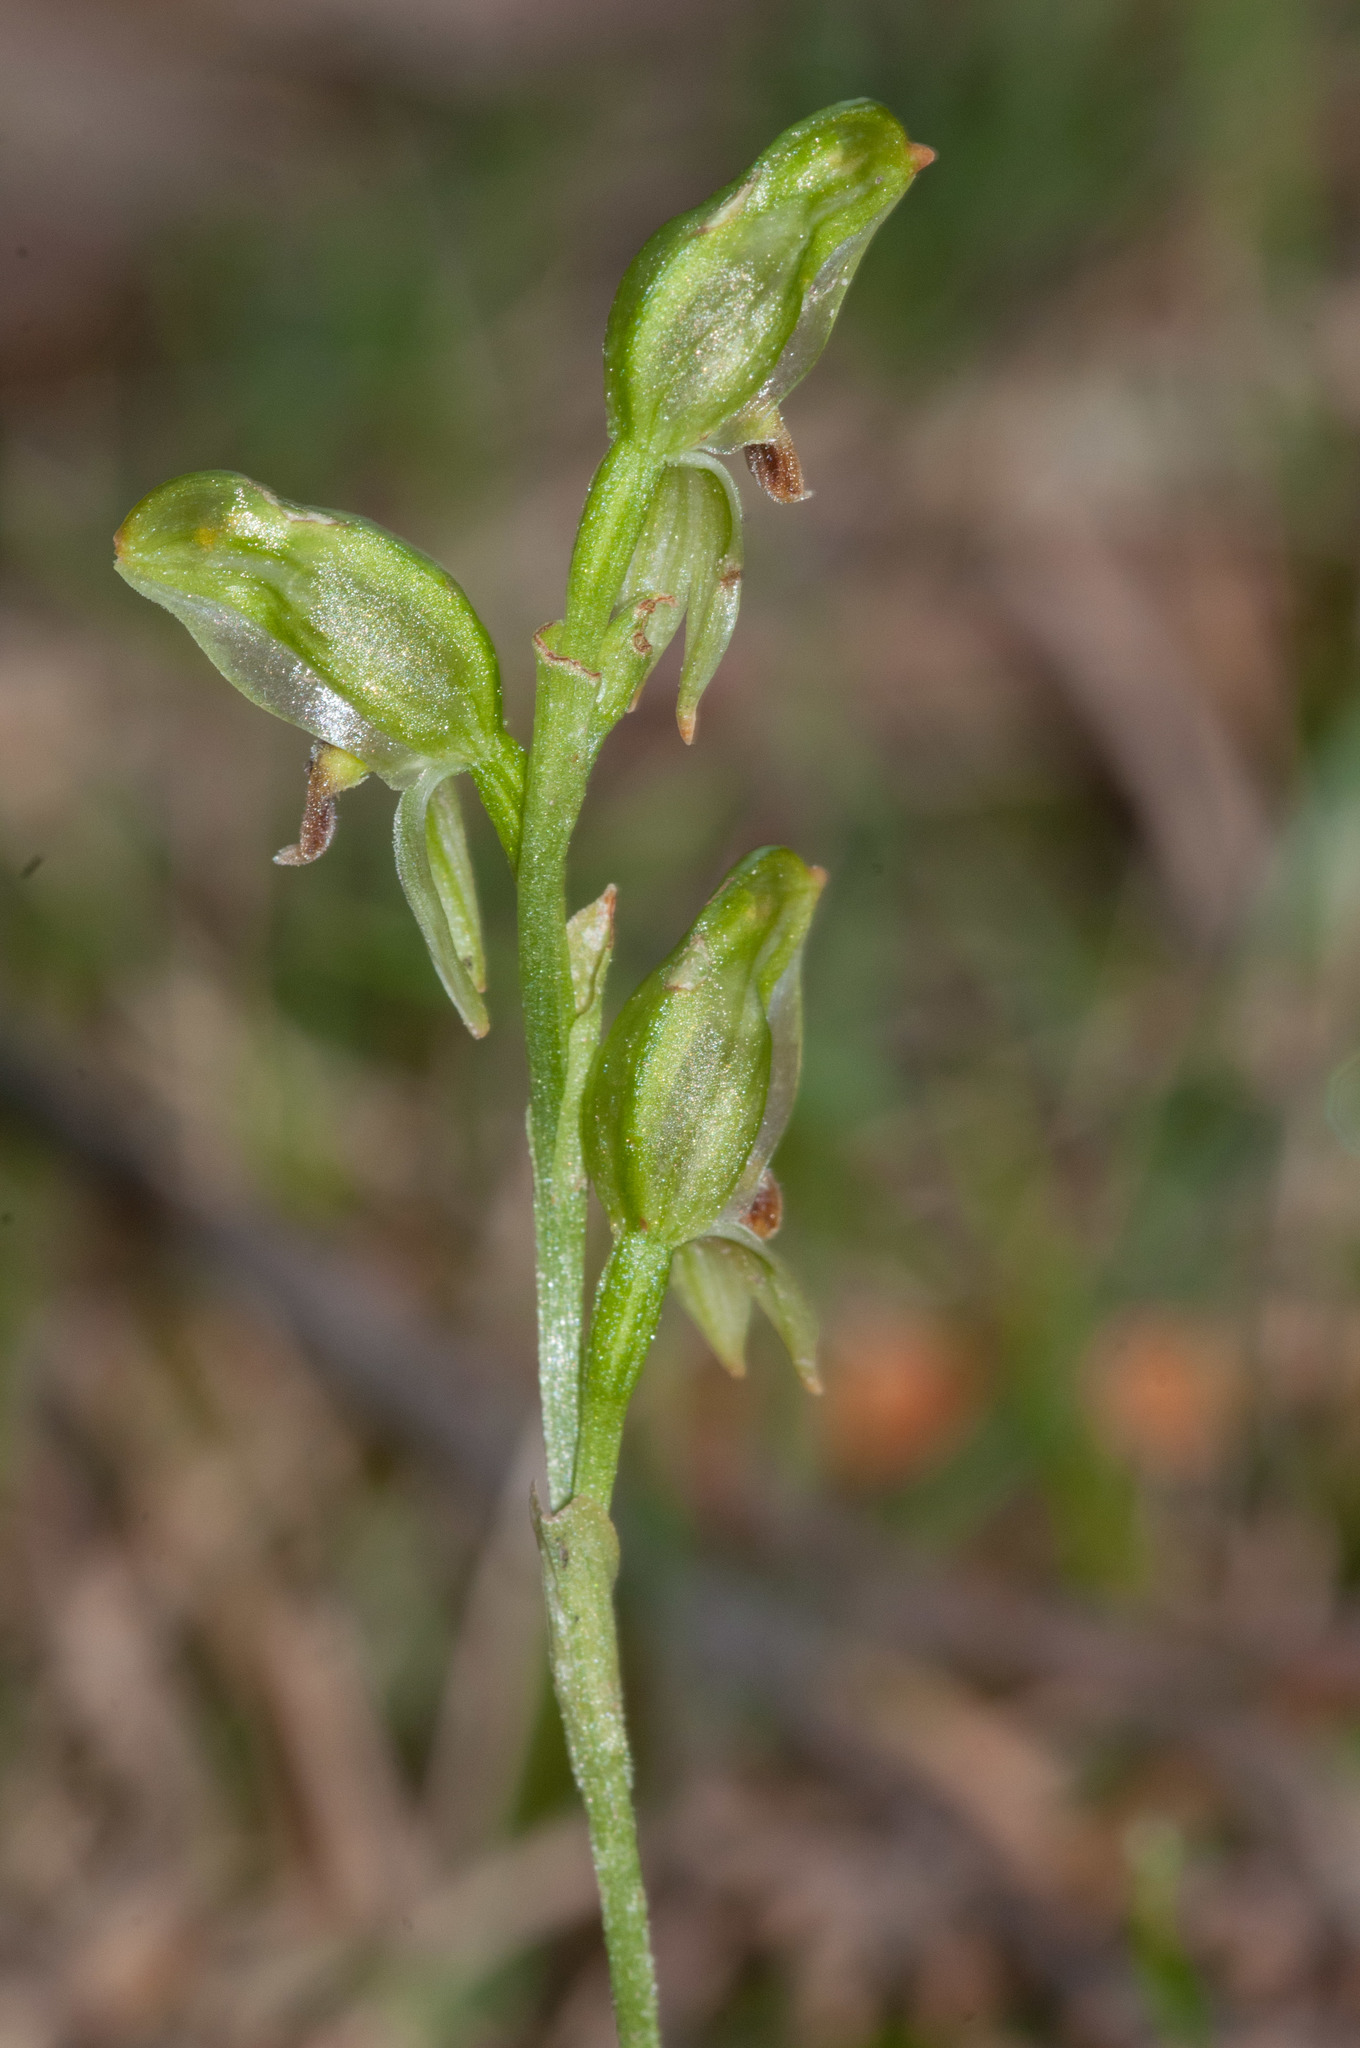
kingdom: Plantae
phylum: Tracheophyta
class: Liliopsida
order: Asparagales
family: Orchidaceae
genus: Pterostylis
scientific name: Pterostylis melagramma
